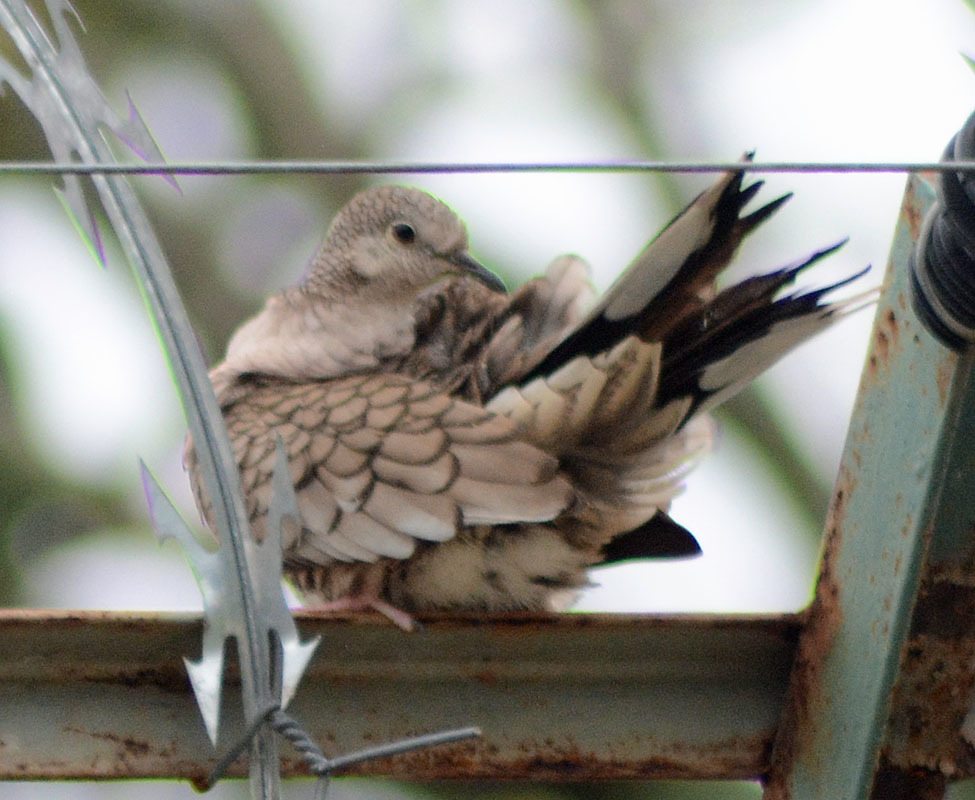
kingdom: Animalia
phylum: Chordata
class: Aves
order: Columbiformes
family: Columbidae
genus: Columbina
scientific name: Columbina inca
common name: Inca dove
